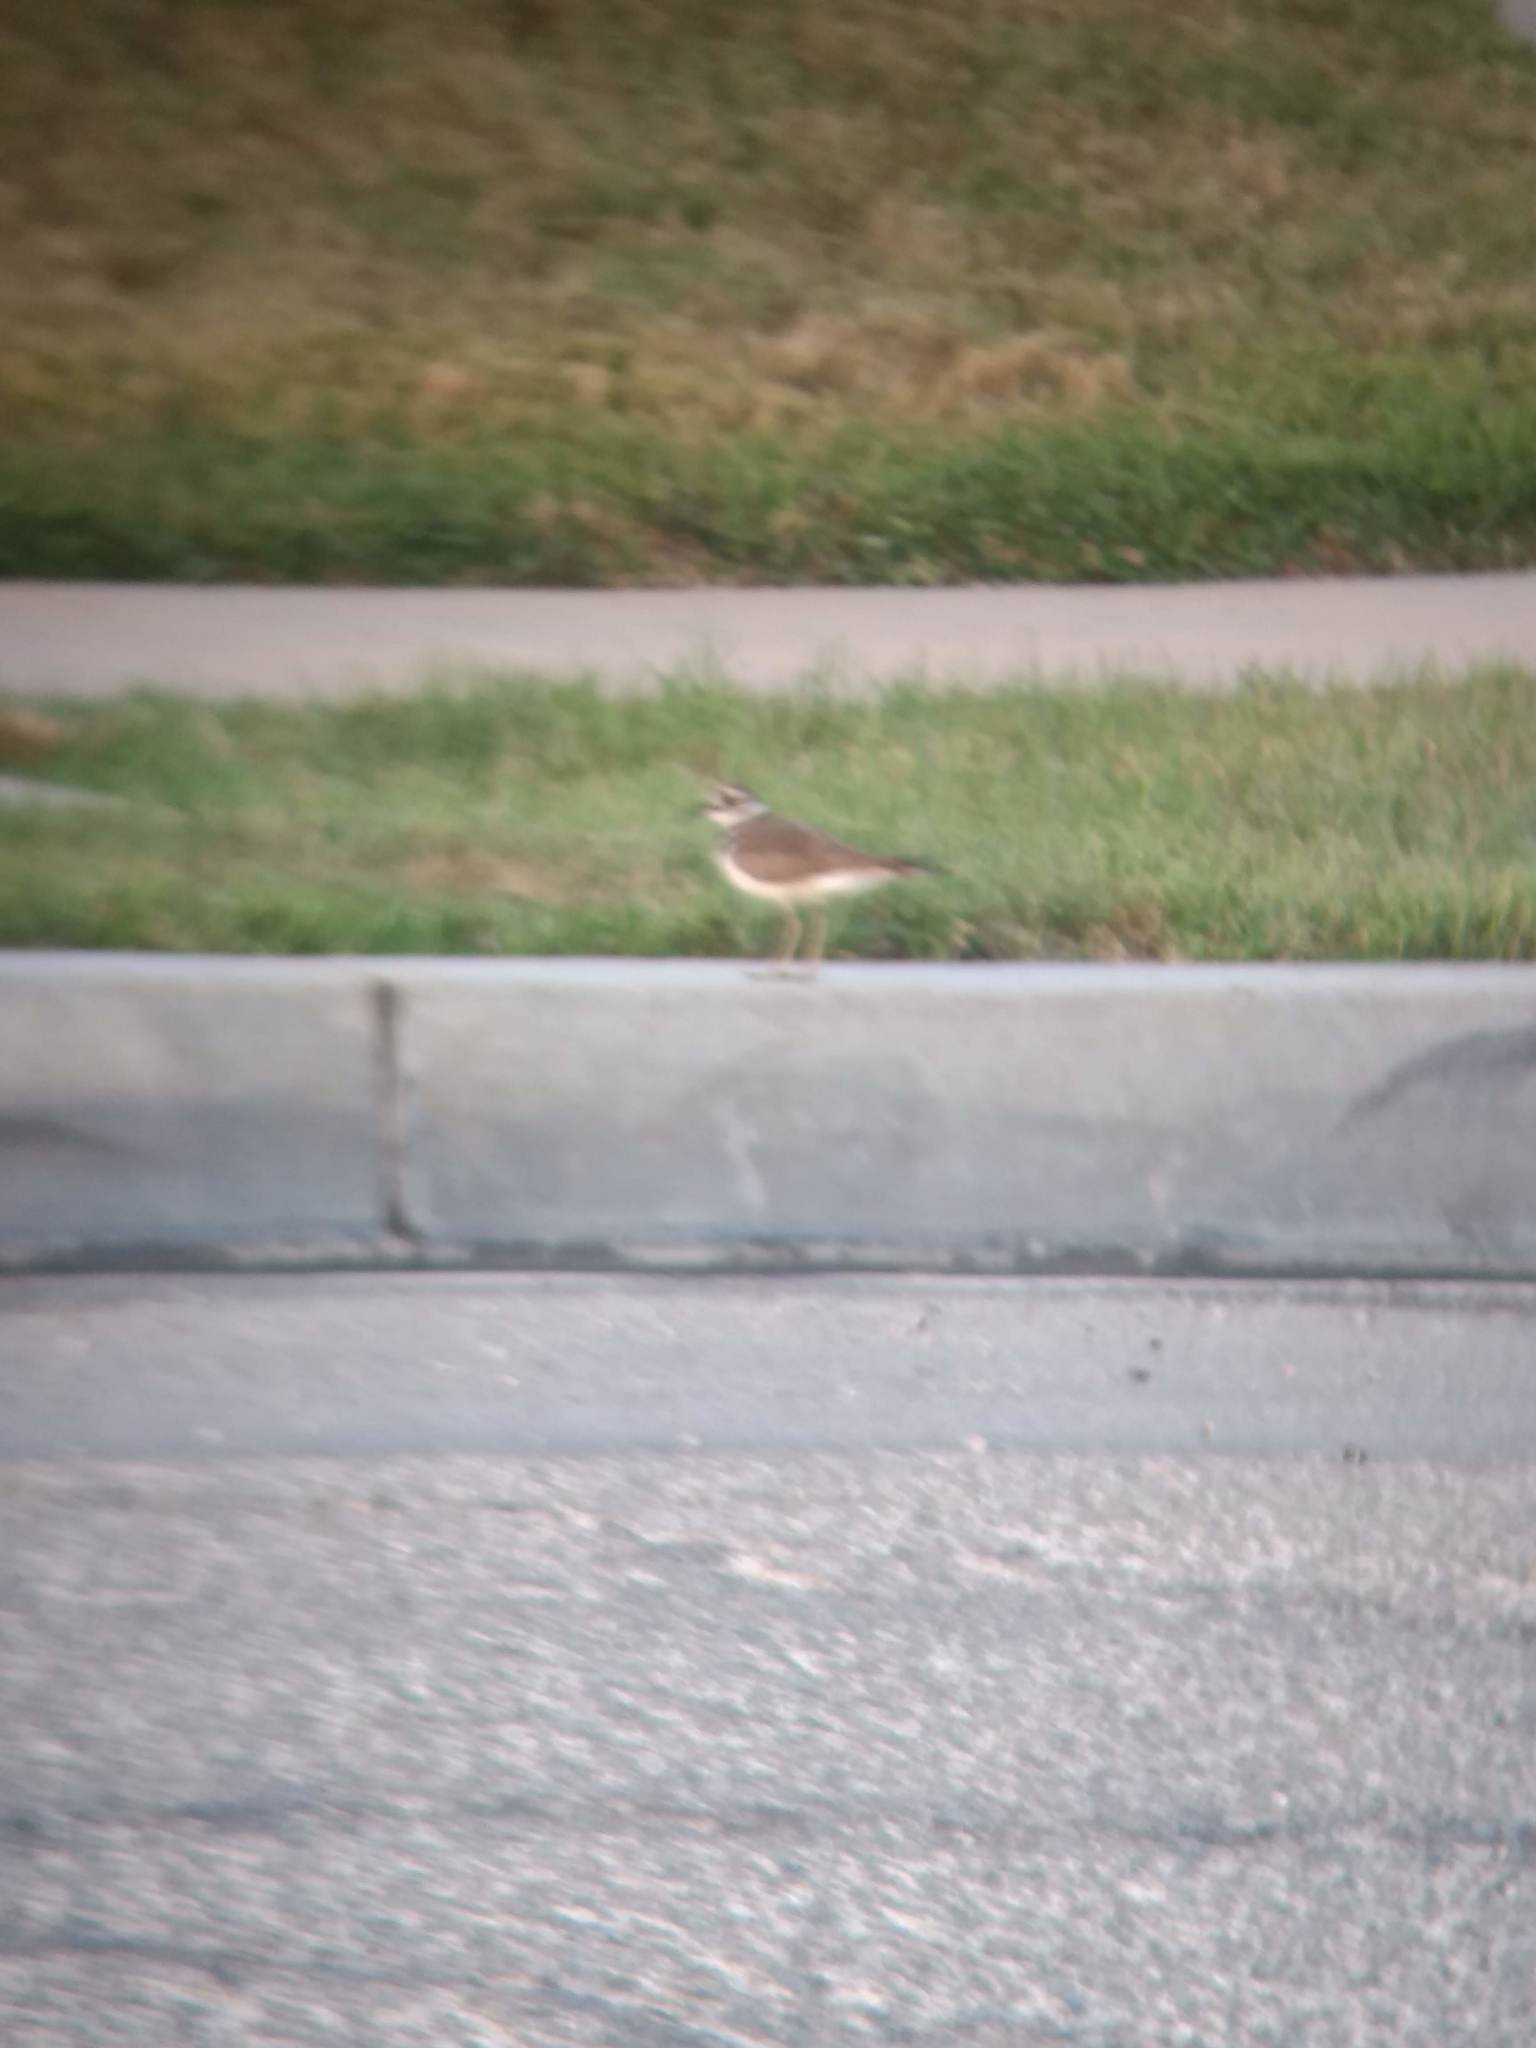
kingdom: Animalia
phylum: Chordata
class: Aves
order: Charadriiformes
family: Charadriidae
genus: Charadrius
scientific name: Charadrius vociferus
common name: Killdeer
